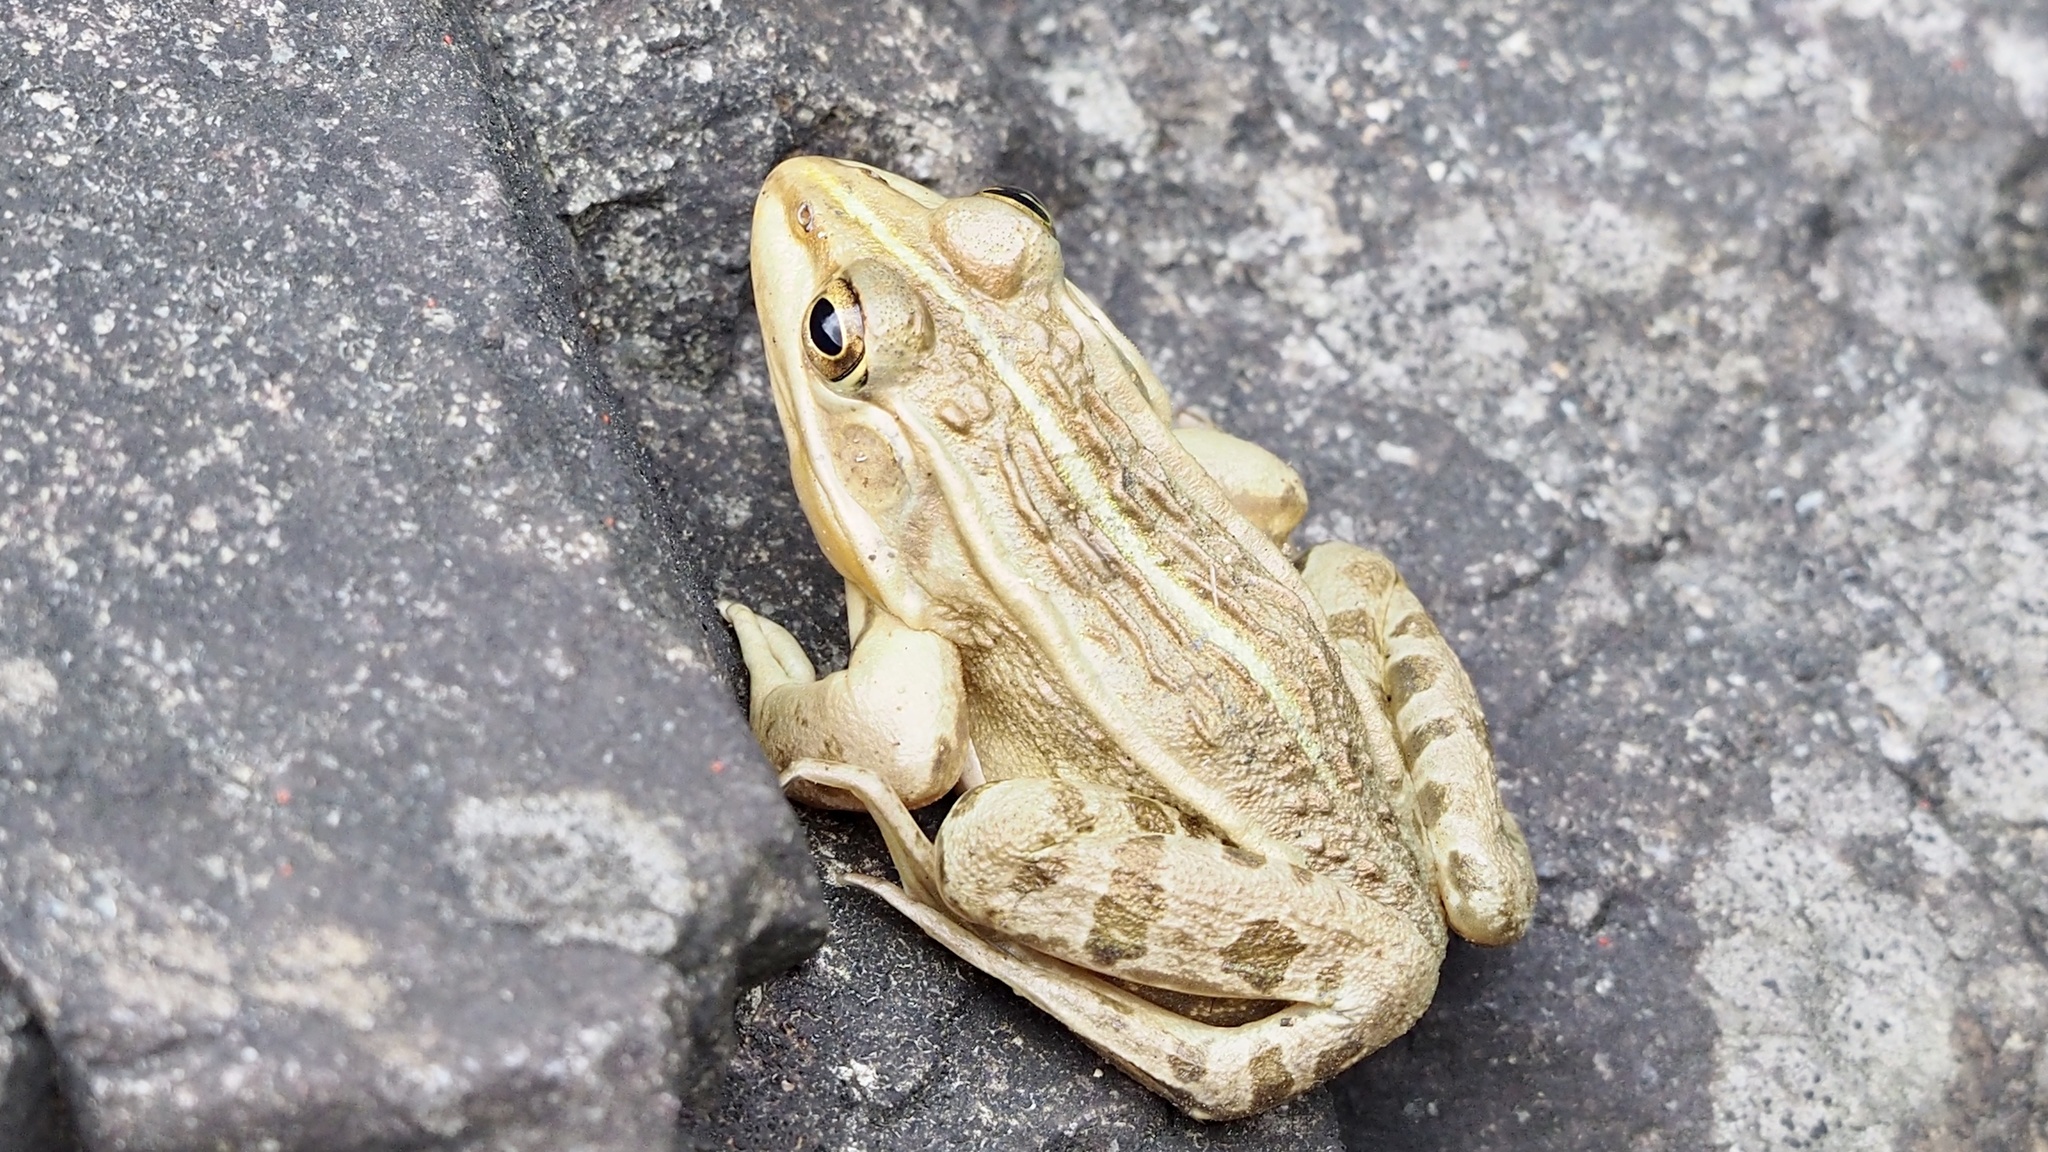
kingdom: Animalia
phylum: Chordata
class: Amphibia
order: Anura
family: Ranidae
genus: Pelophylax
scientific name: Pelophylax nigromaculatus
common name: Black-spotted pond frog
